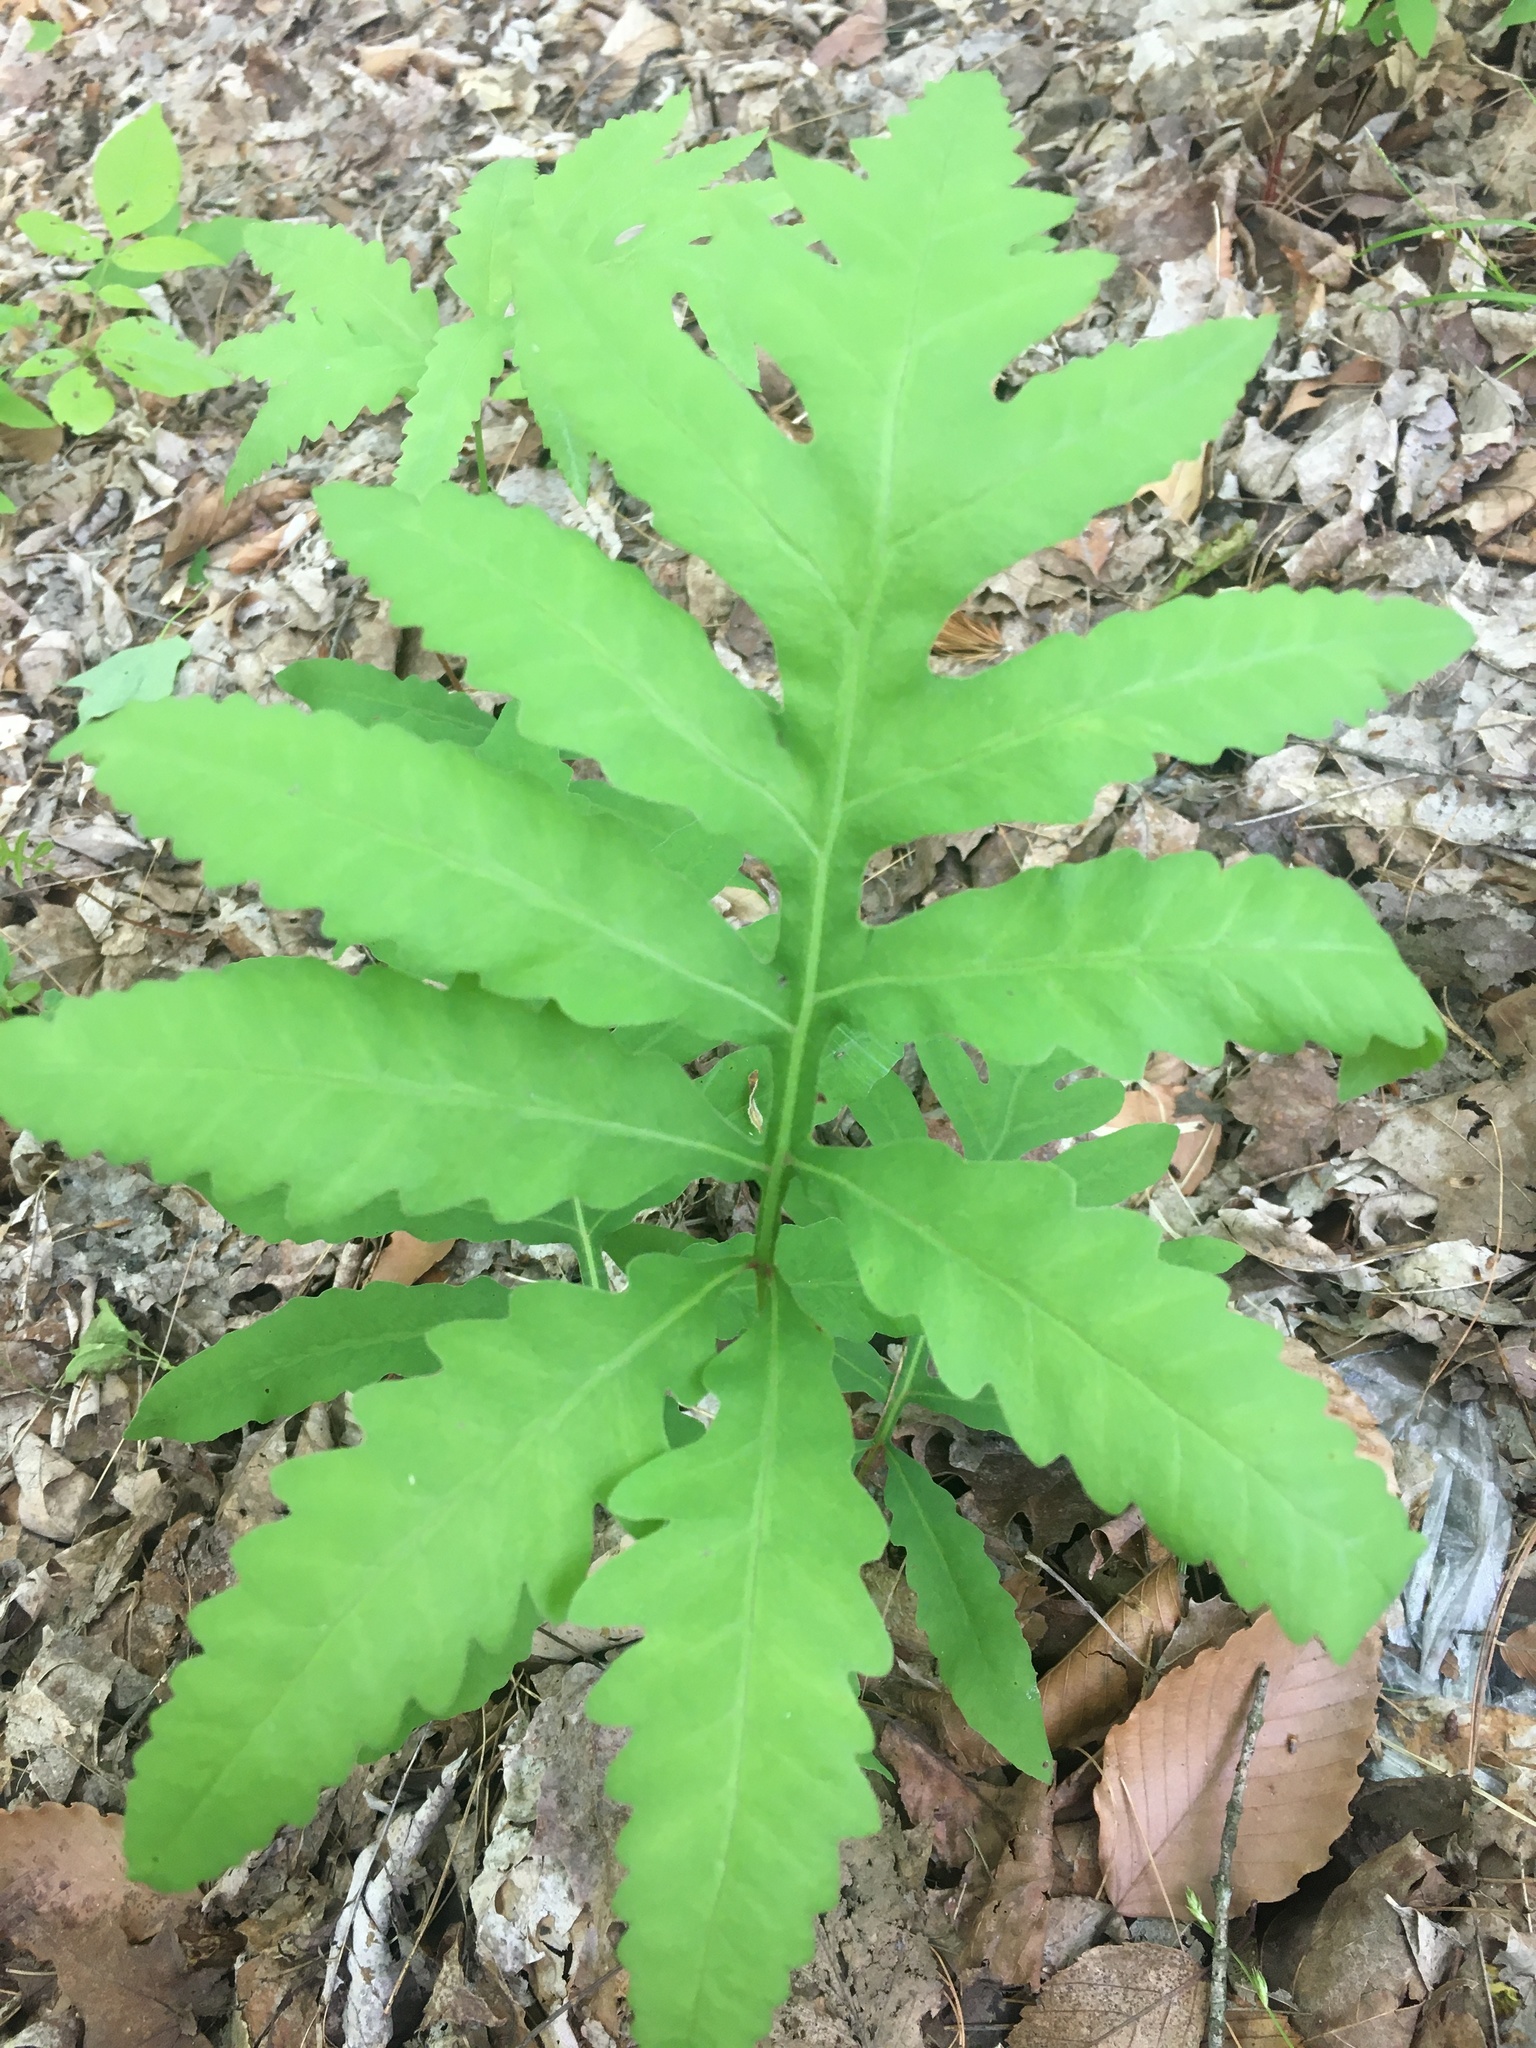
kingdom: Plantae
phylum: Tracheophyta
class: Polypodiopsida
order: Polypodiales
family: Onocleaceae
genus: Onoclea
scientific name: Onoclea sensibilis
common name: Sensitive fern
